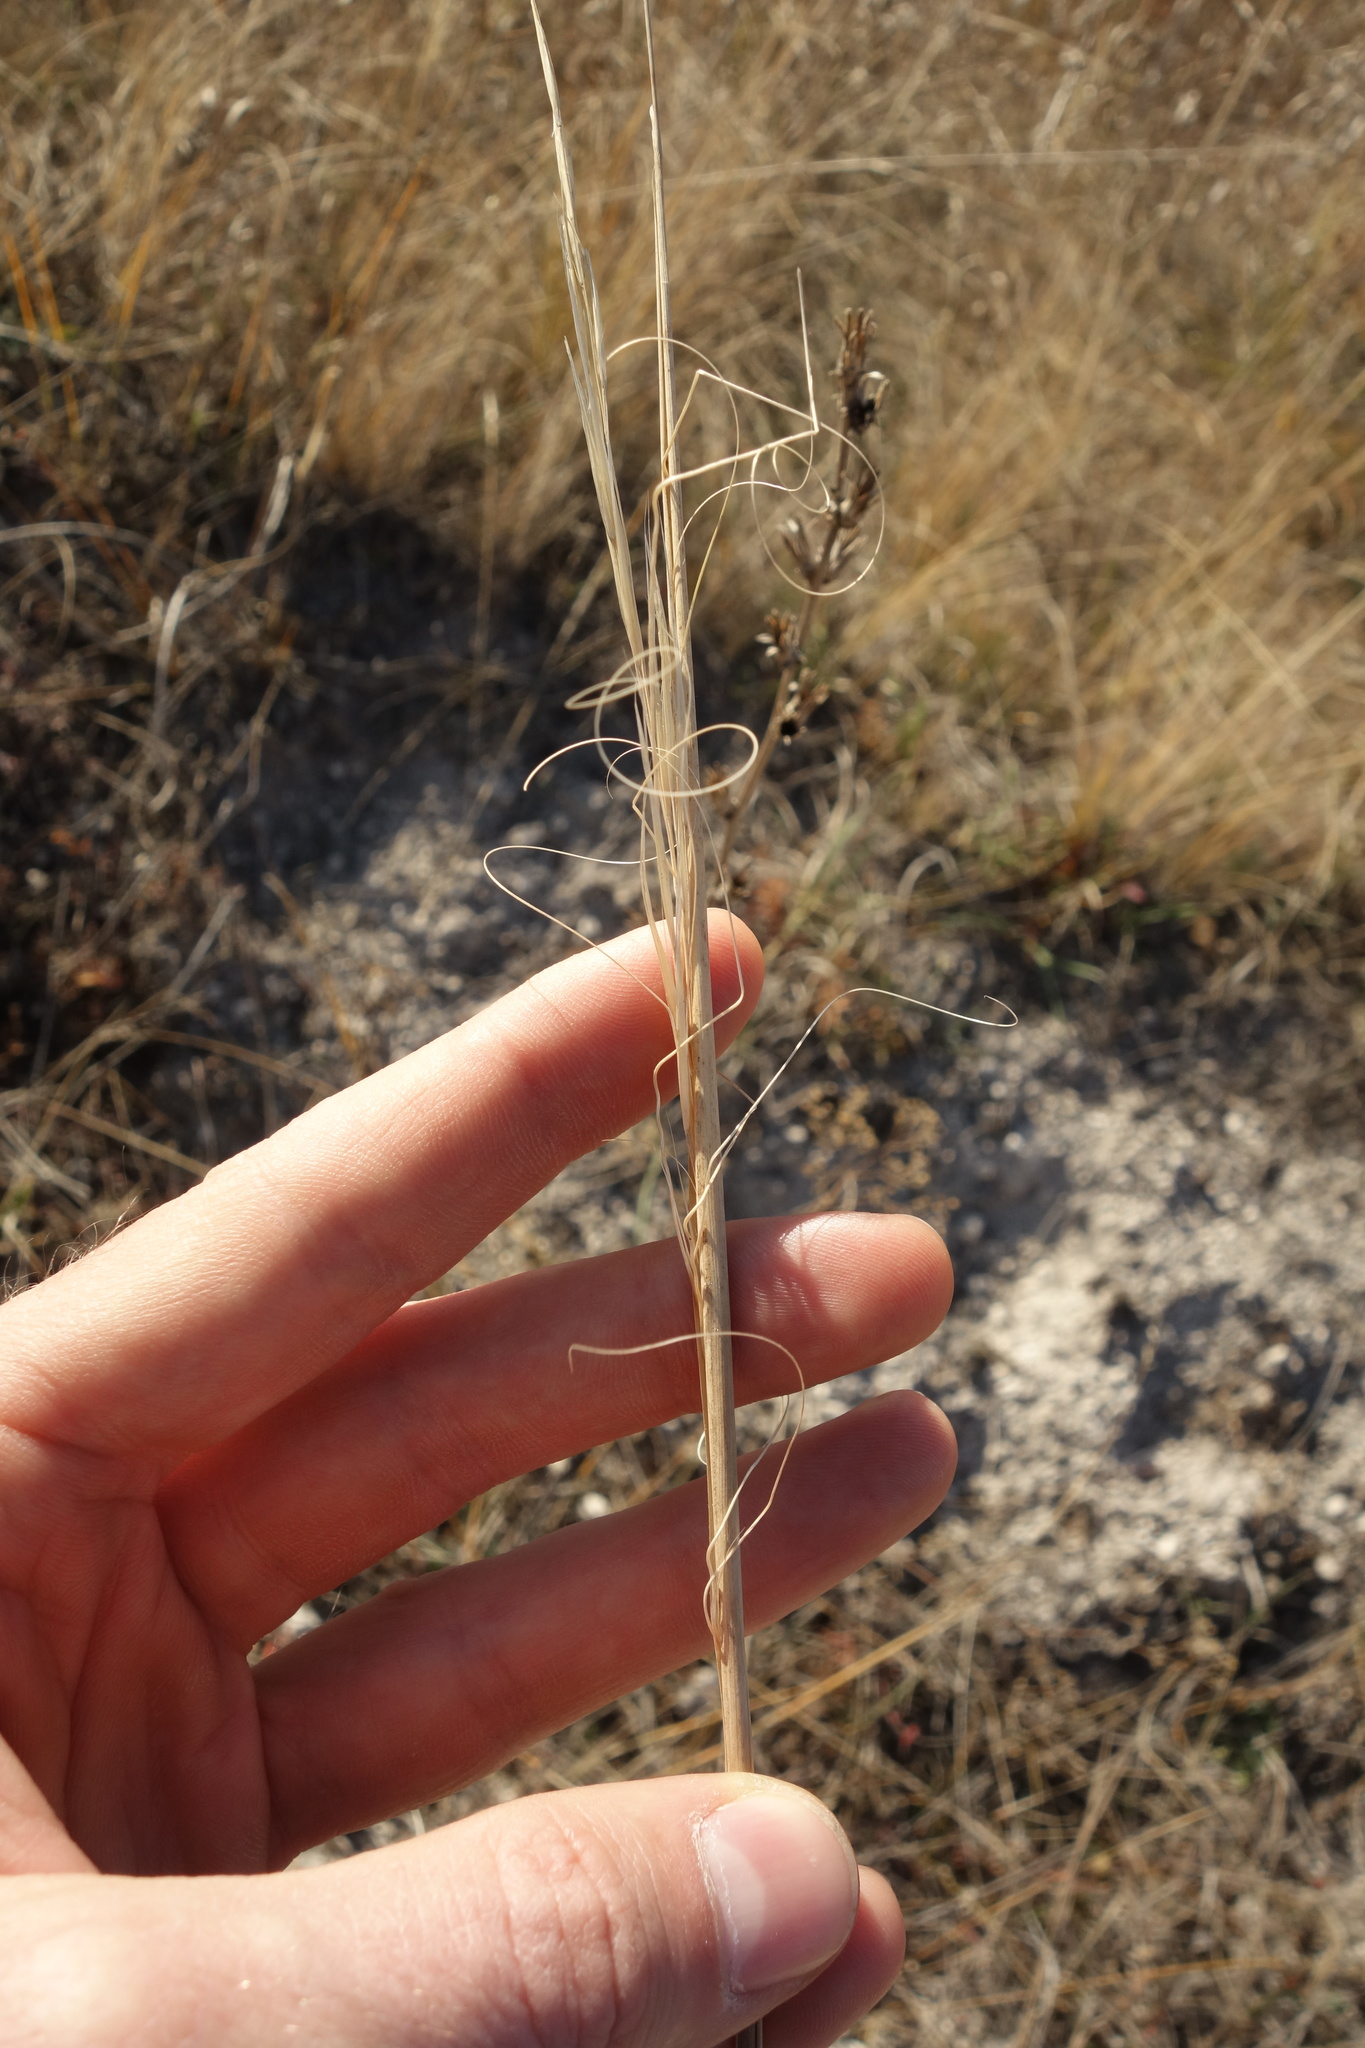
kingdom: Plantae
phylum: Tracheophyta
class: Liliopsida
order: Poales
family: Poaceae
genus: Stipa
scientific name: Stipa capillata
